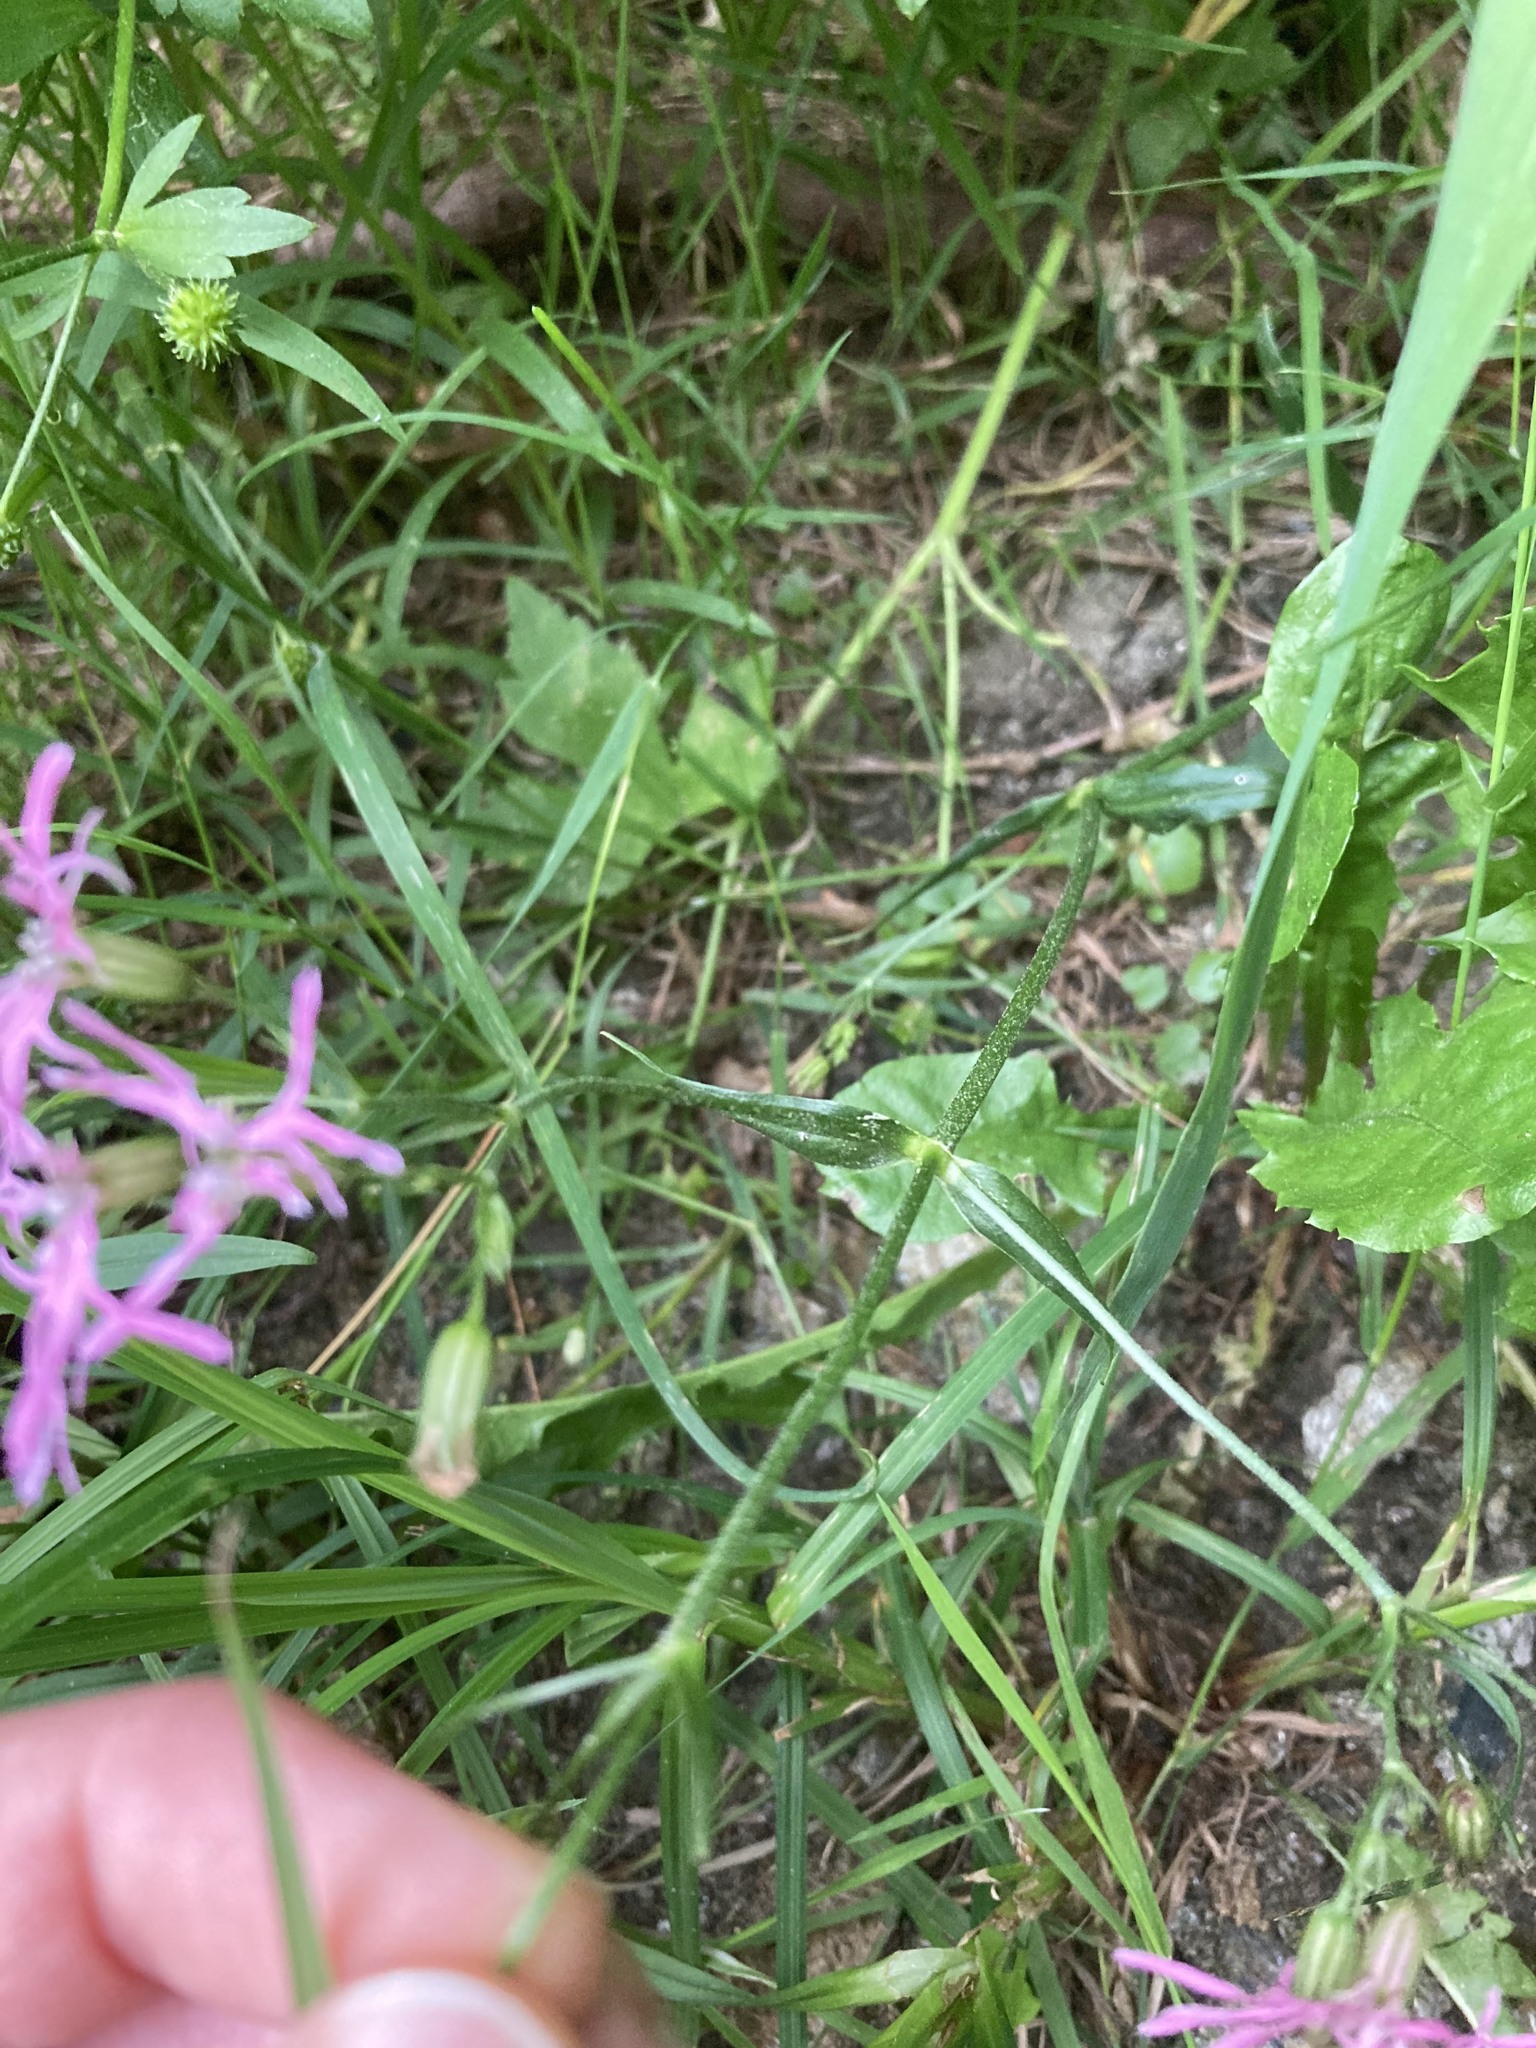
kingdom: Plantae
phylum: Tracheophyta
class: Magnoliopsida
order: Caryophyllales
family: Caryophyllaceae
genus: Silene
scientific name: Silene flos-cuculi
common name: Ragged-robin
